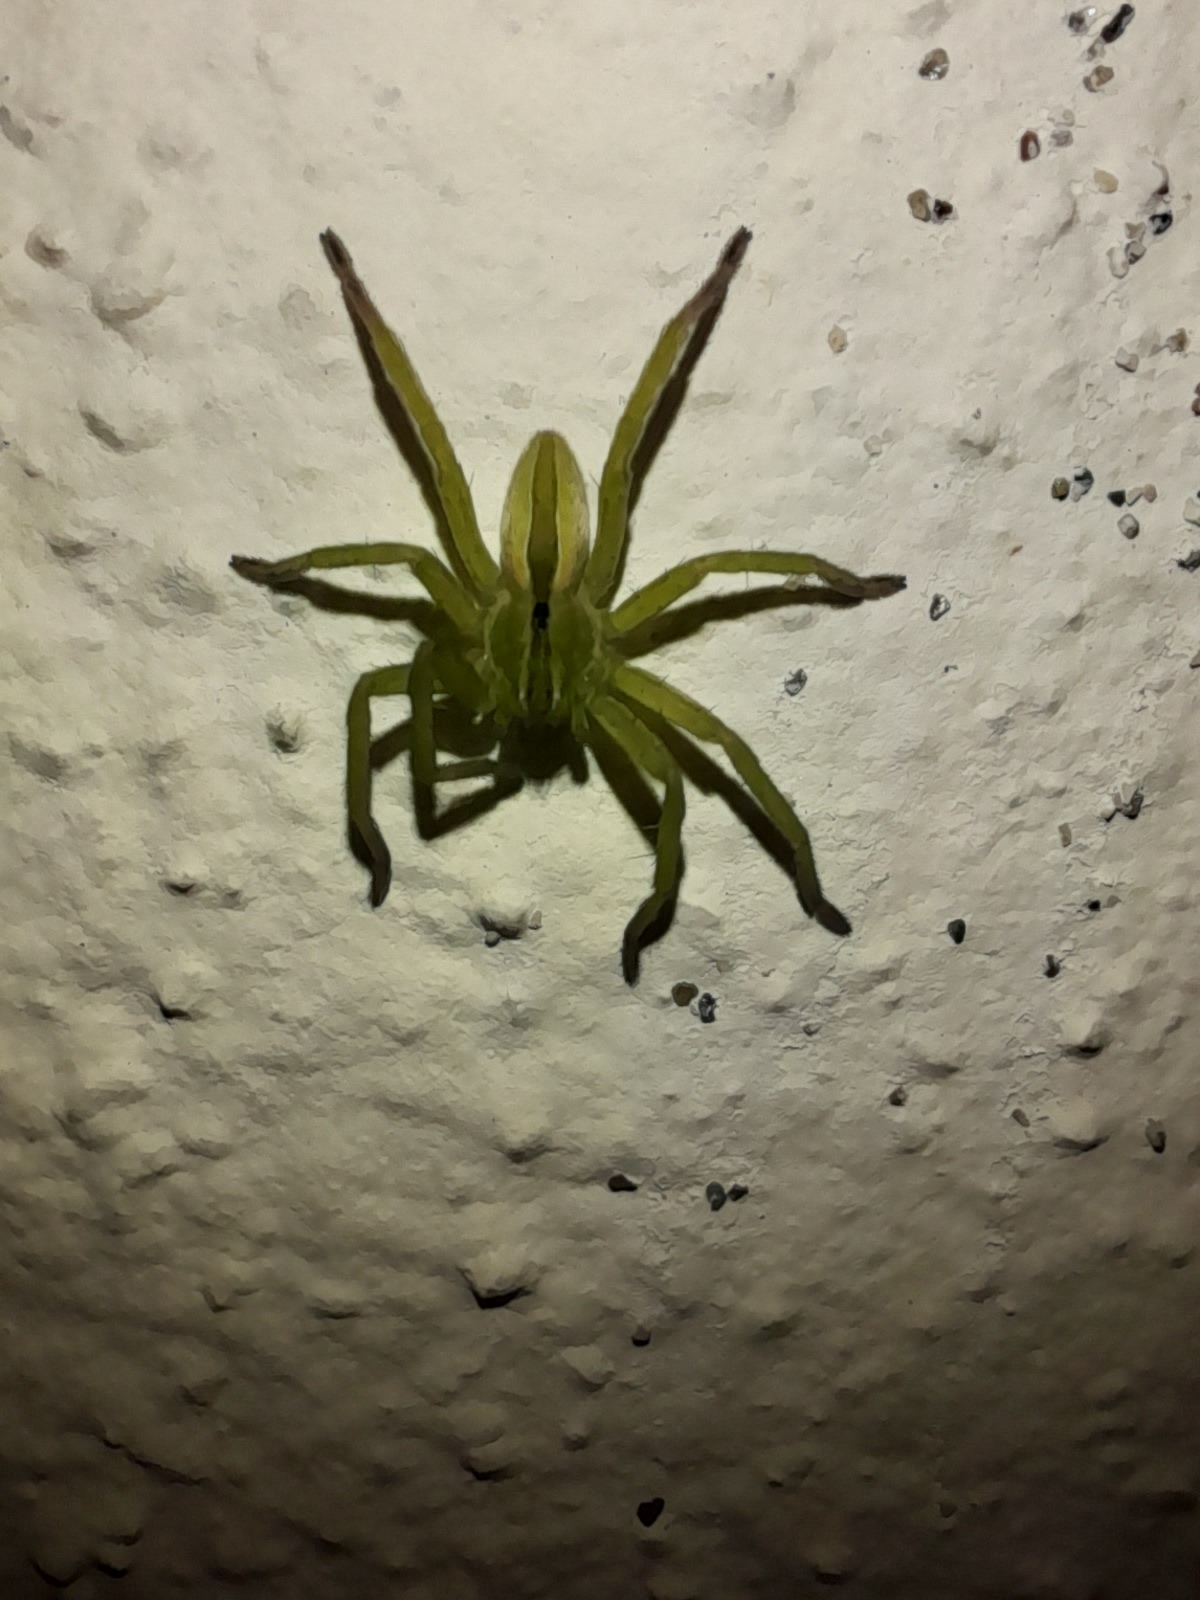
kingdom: Animalia
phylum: Arthropoda
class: Arachnida
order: Araneae
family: Sparassidae
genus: Micrommata
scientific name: Micrommata ligurina
